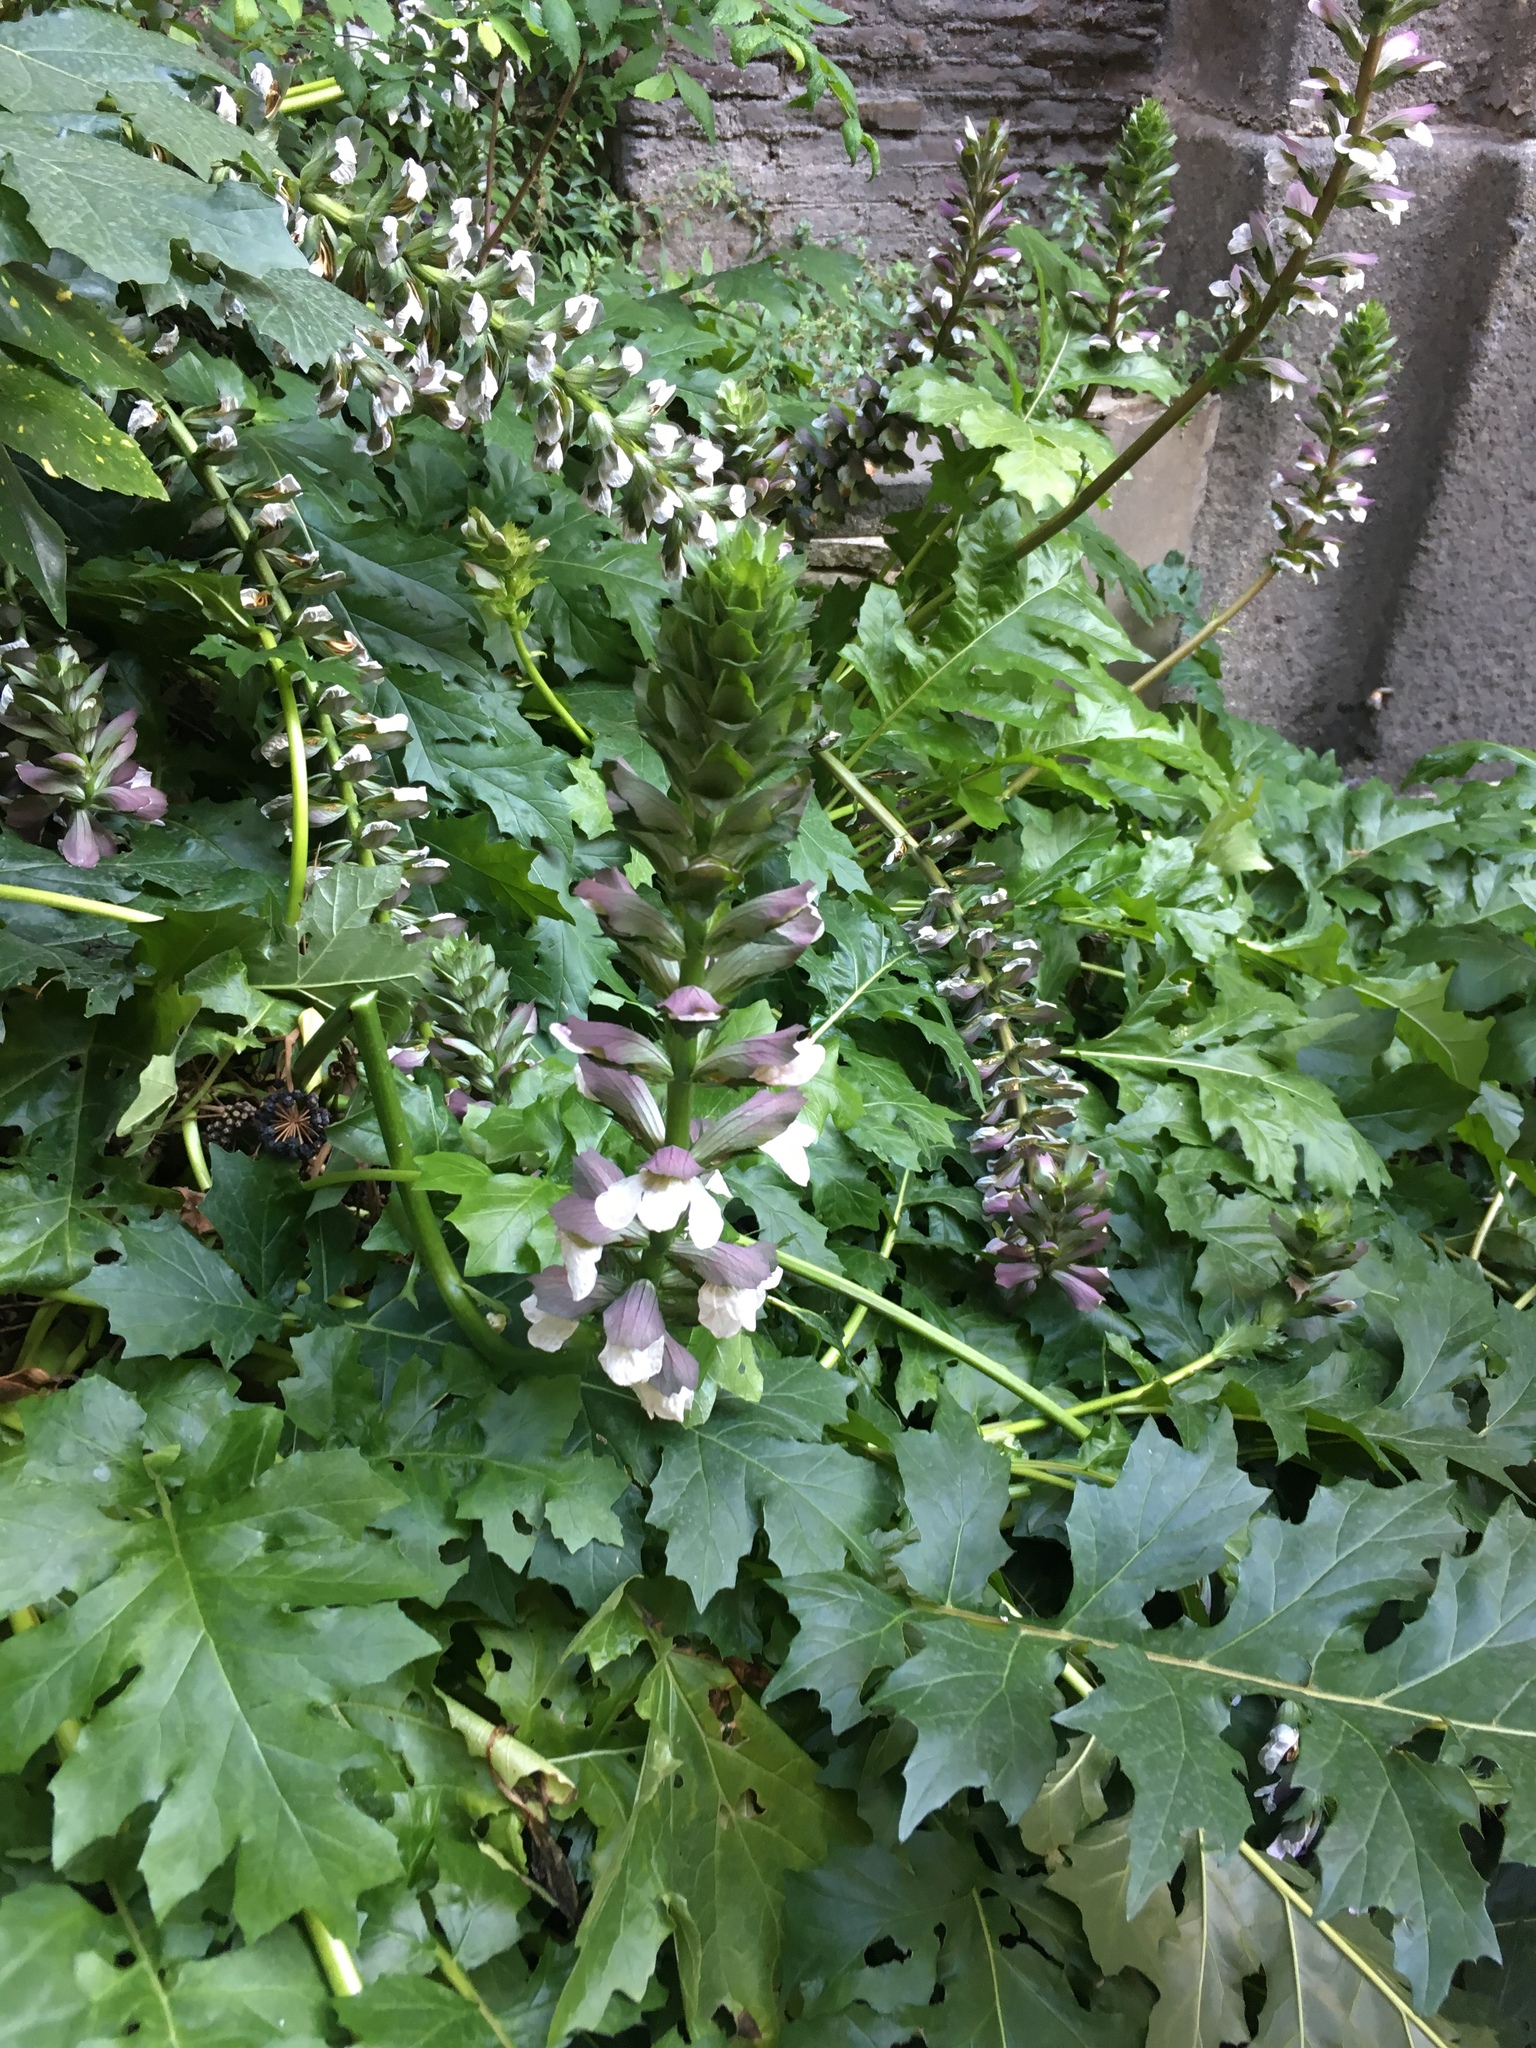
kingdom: Plantae
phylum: Tracheophyta
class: Magnoliopsida
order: Lamiales
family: Acanthaceae
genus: Acanthus
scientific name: Acanthus mollis
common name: Bear's-breech
